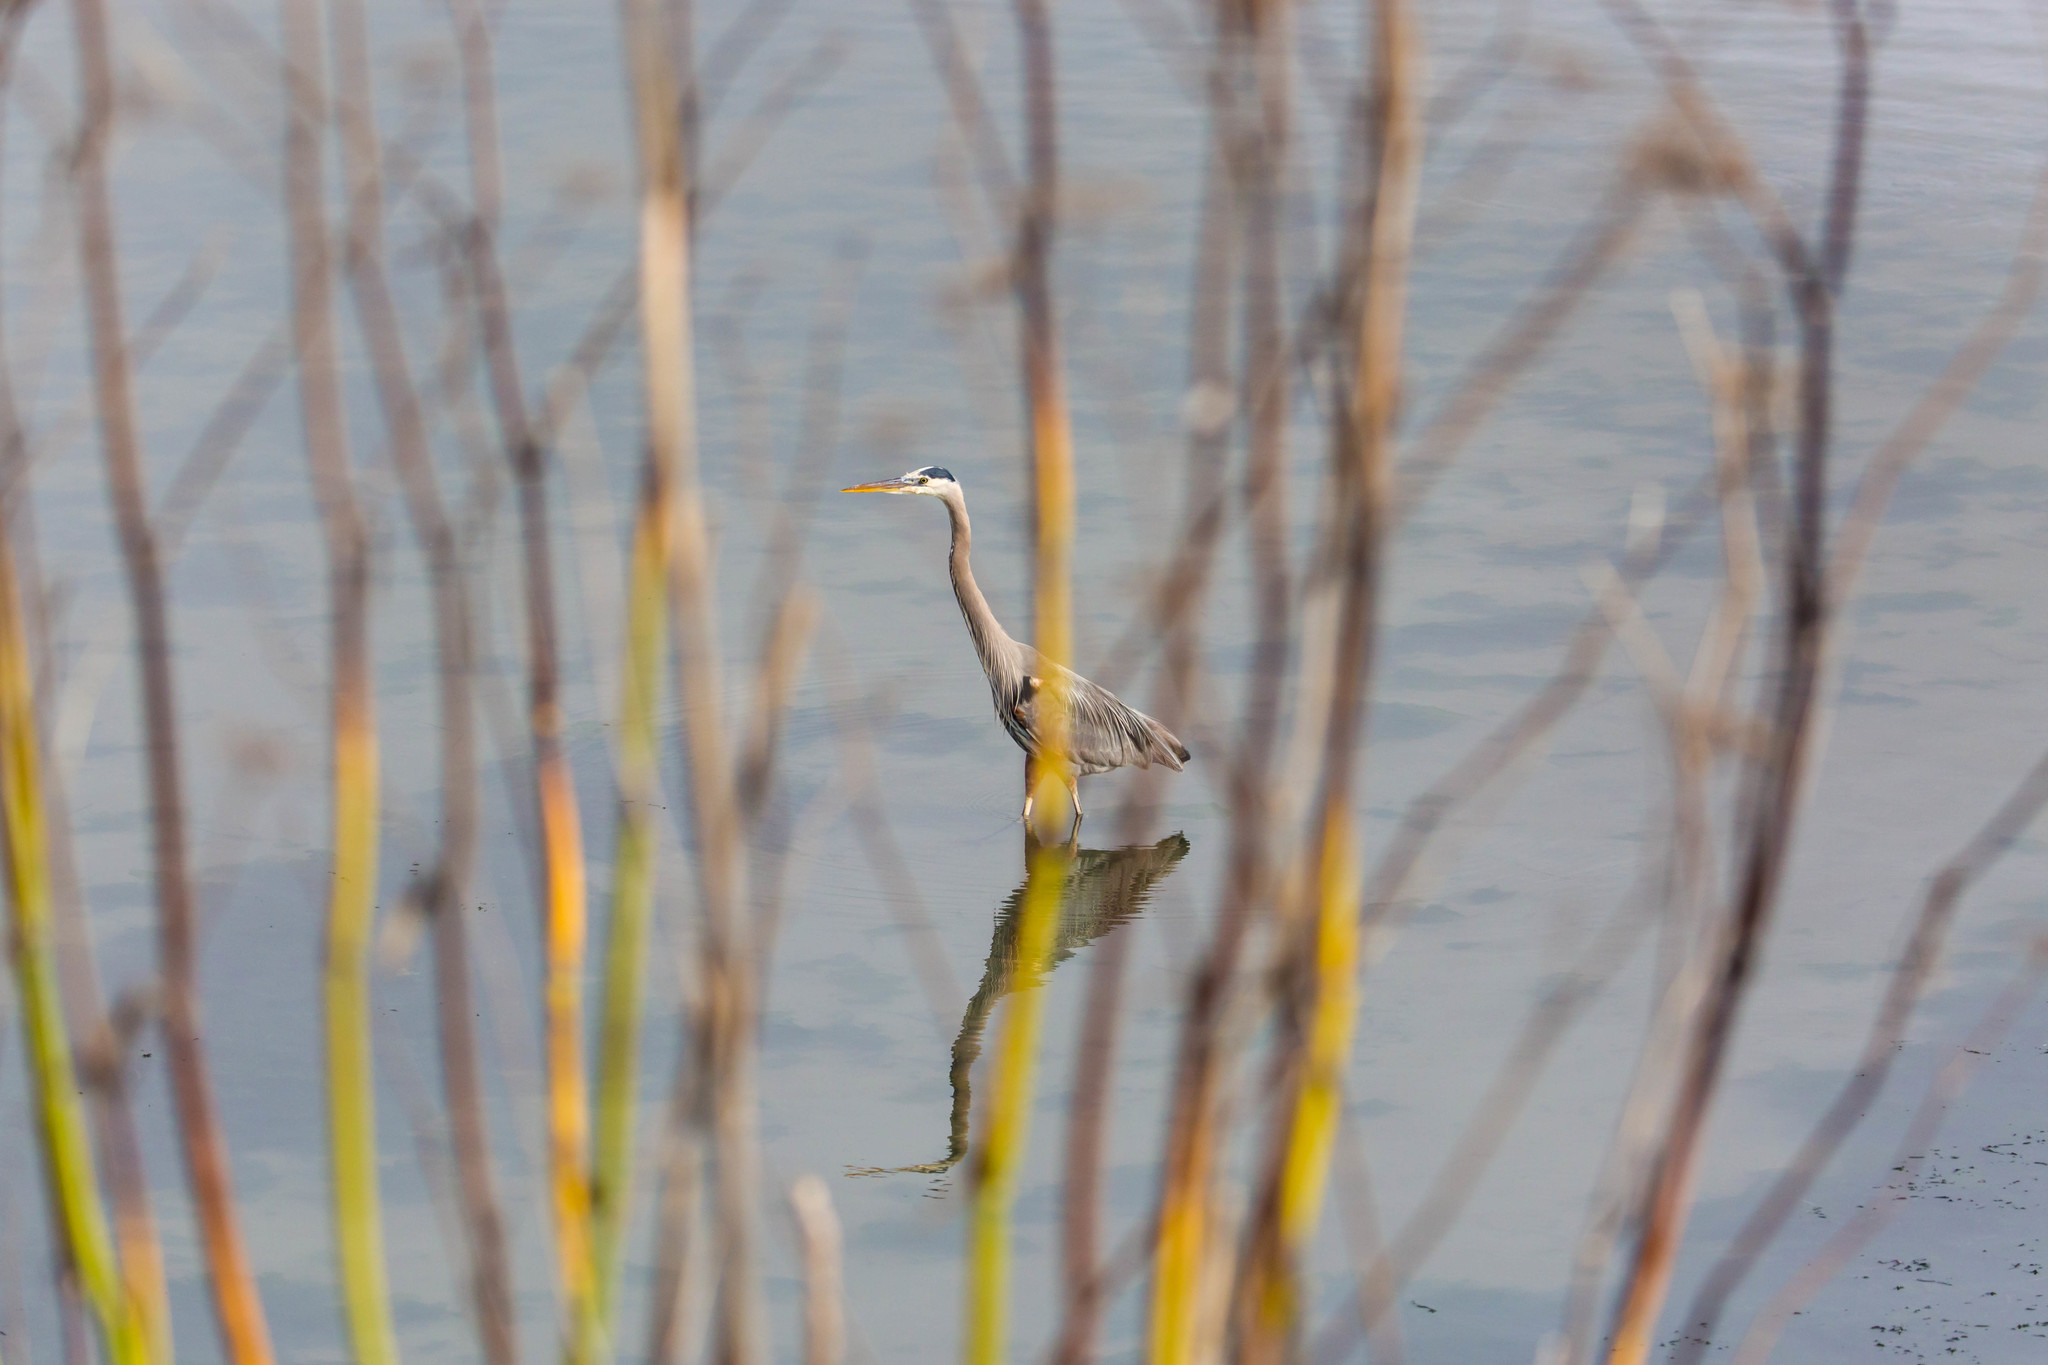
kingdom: Animalia
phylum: Chordata
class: Aves
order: Pelecaniformes
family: Ardeidae
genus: Ardea
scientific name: Ardea herodias
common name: Great blue heron
